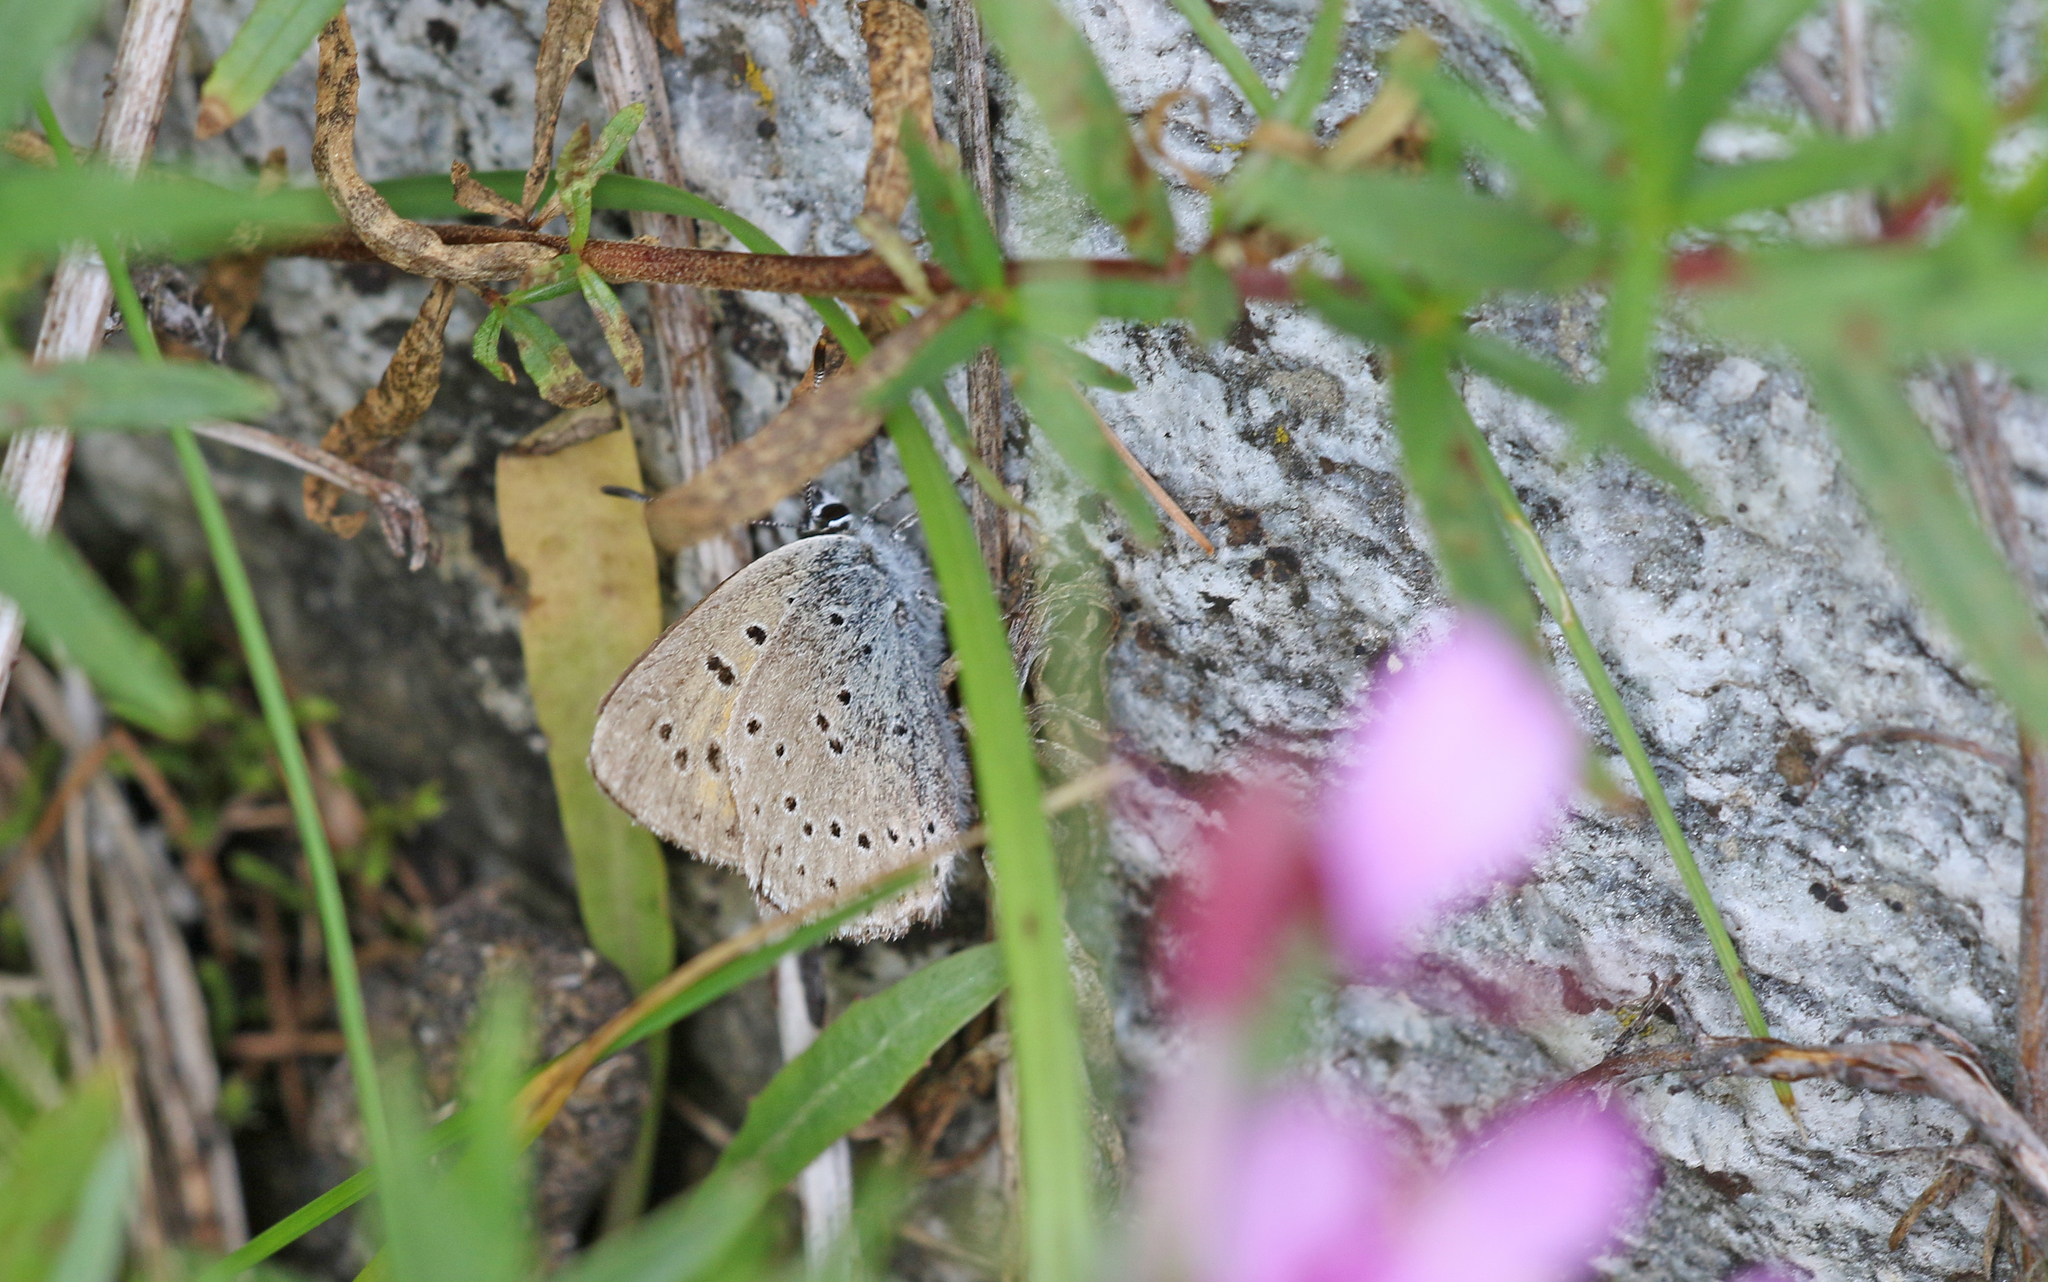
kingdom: Animalia
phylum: Arthropoda
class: Insecta
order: Lepidoptera
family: Lycaenidae
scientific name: Lycaenidae
